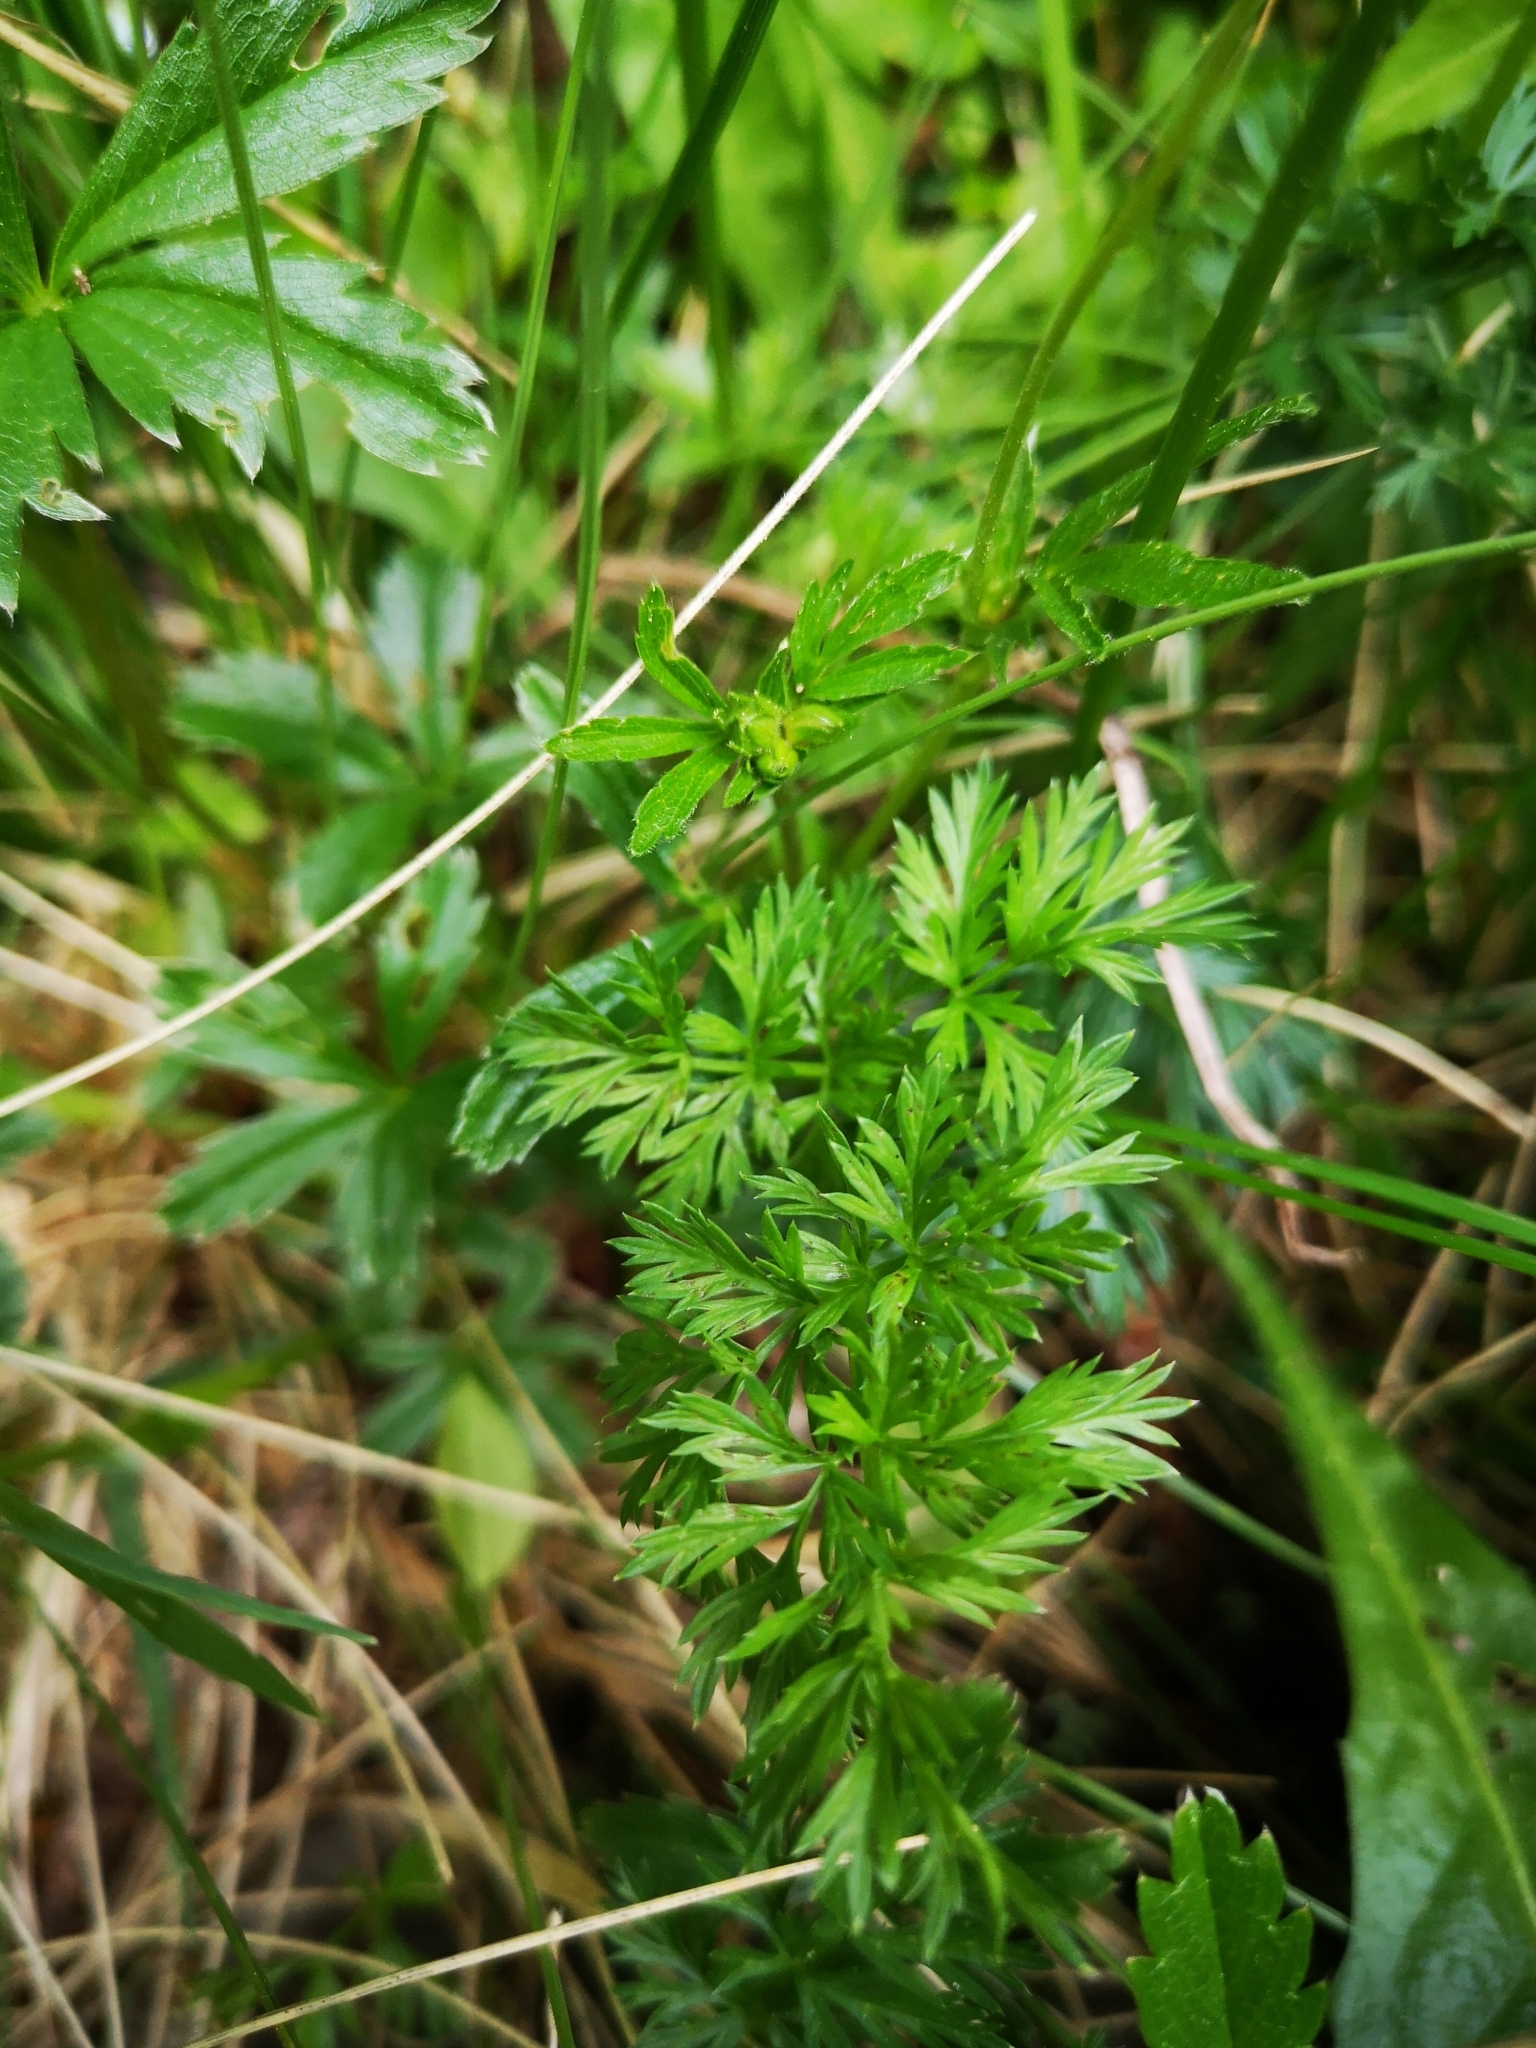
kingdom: Plantae
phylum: Tracheophyta
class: Magnoliopsida
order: Apiales
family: Apiaceae
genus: Carum
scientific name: Carum carvi
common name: Caraway
